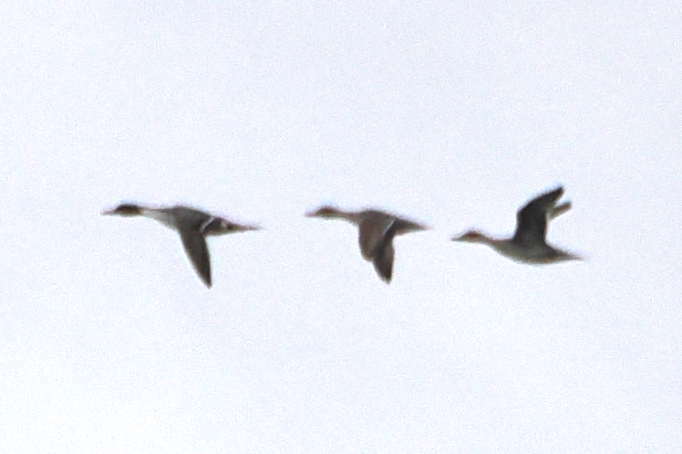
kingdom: Animalia
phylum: Chordata
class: Aves
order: Anseriformes
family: Anatidae
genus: Anas
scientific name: Anas acuta
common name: Northern pintail
